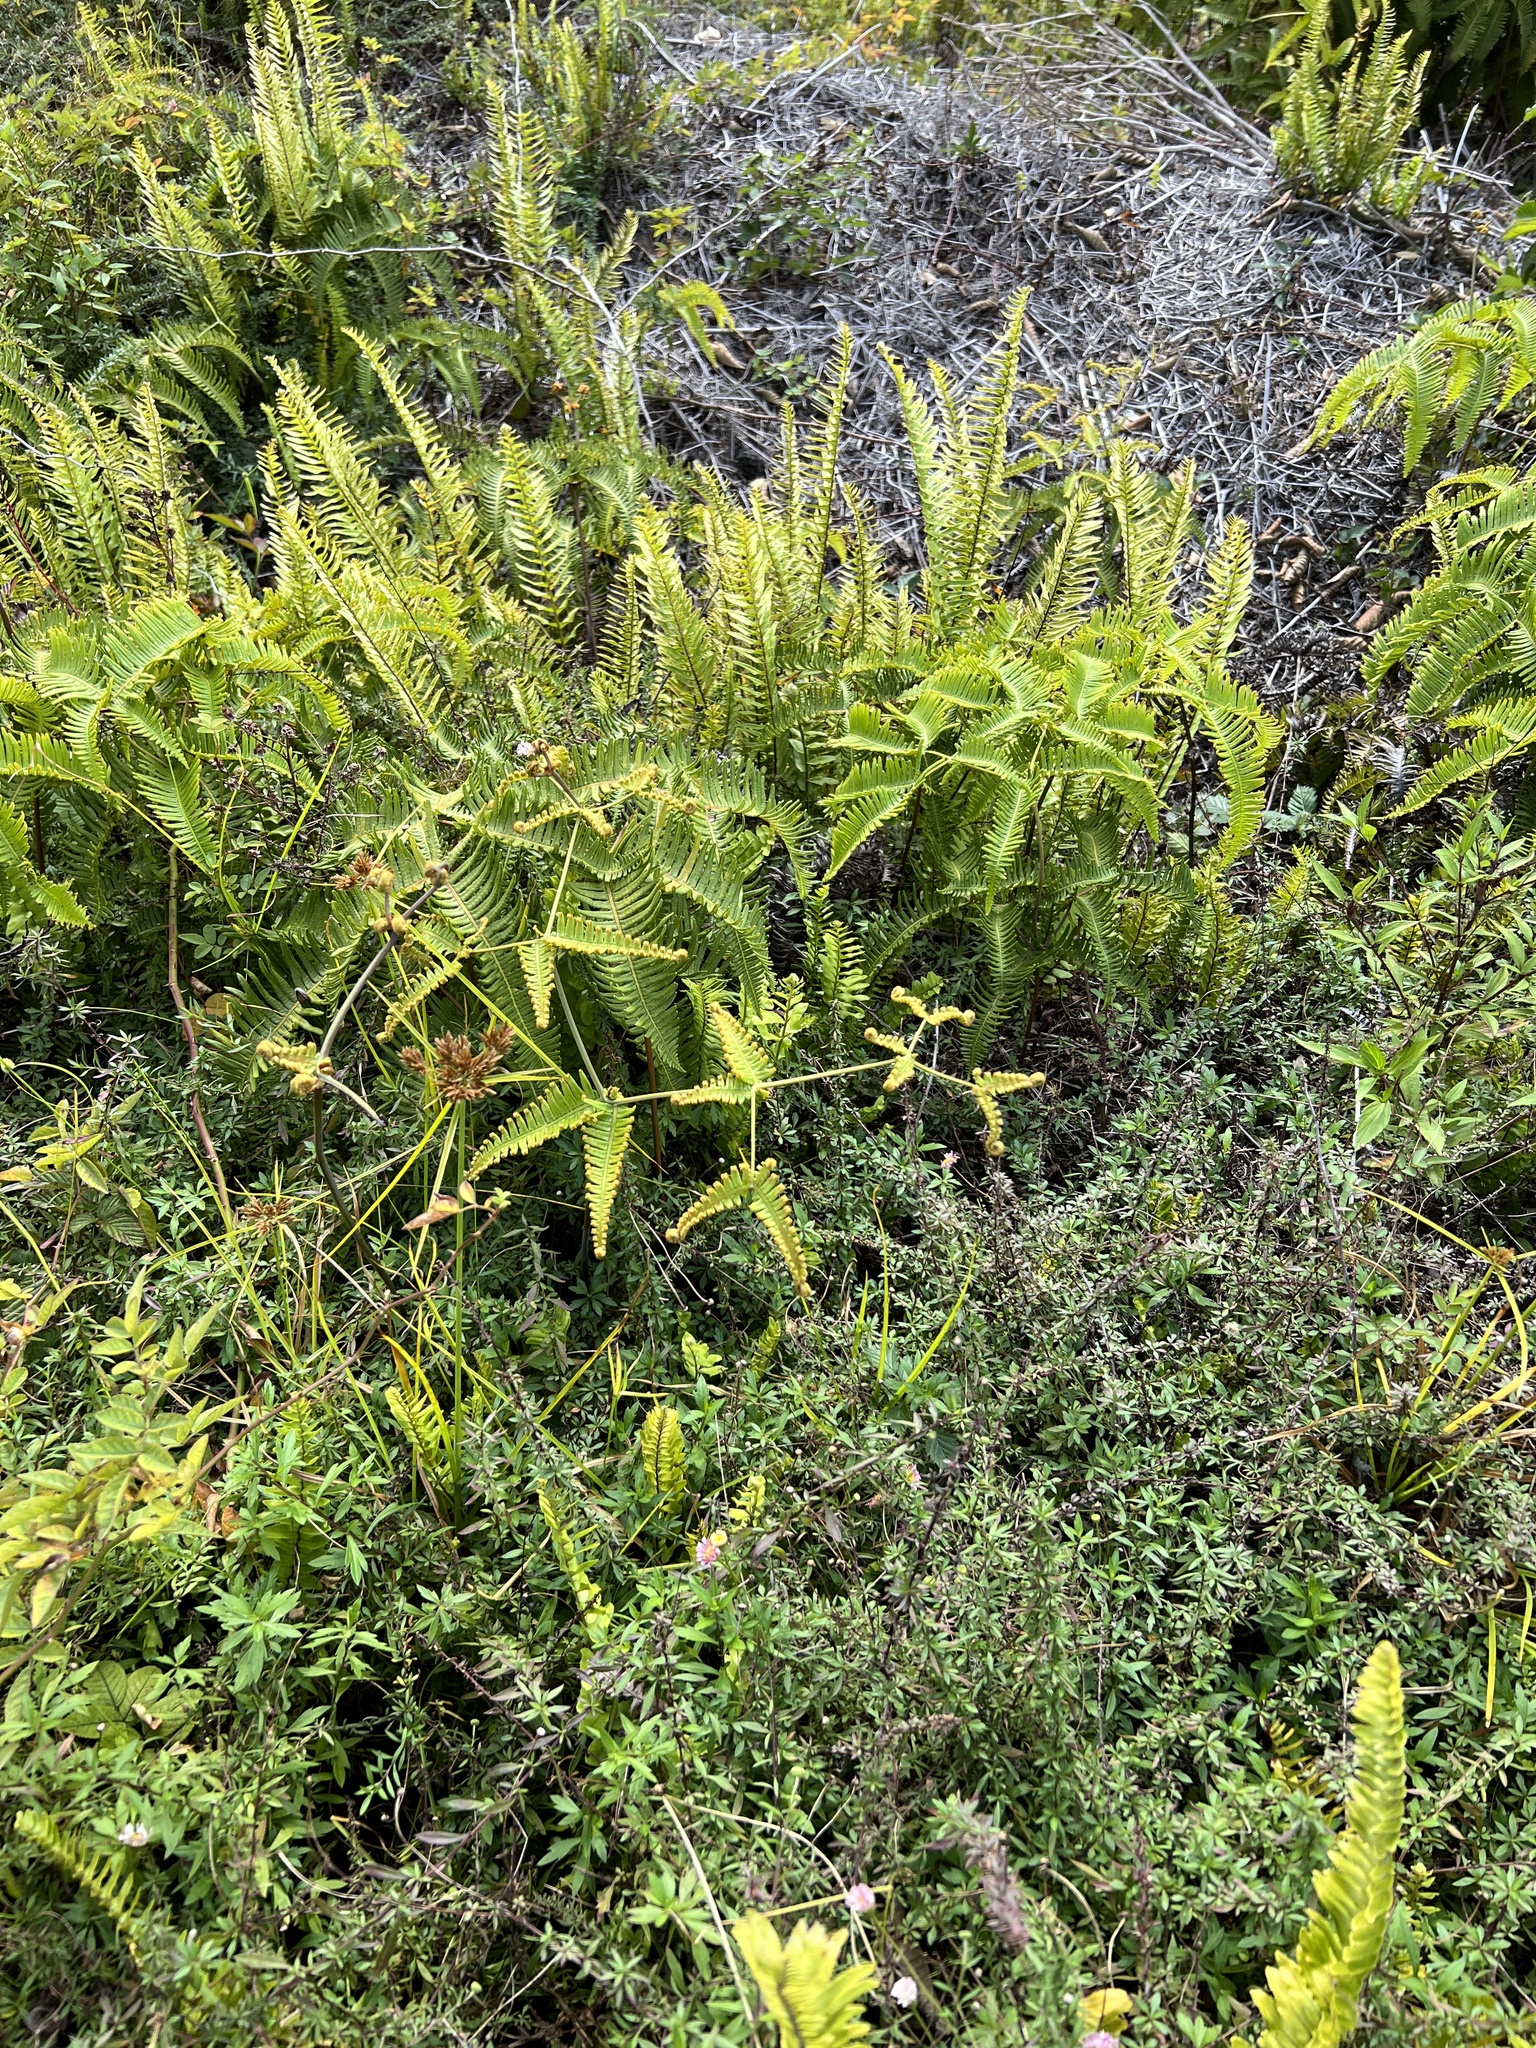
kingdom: Plantae
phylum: Tracheophyta
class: Polypodiopsida
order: Gleicheniales
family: Gleicheniaceae
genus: Dicranopteris
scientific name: Dicranopteris linearis
